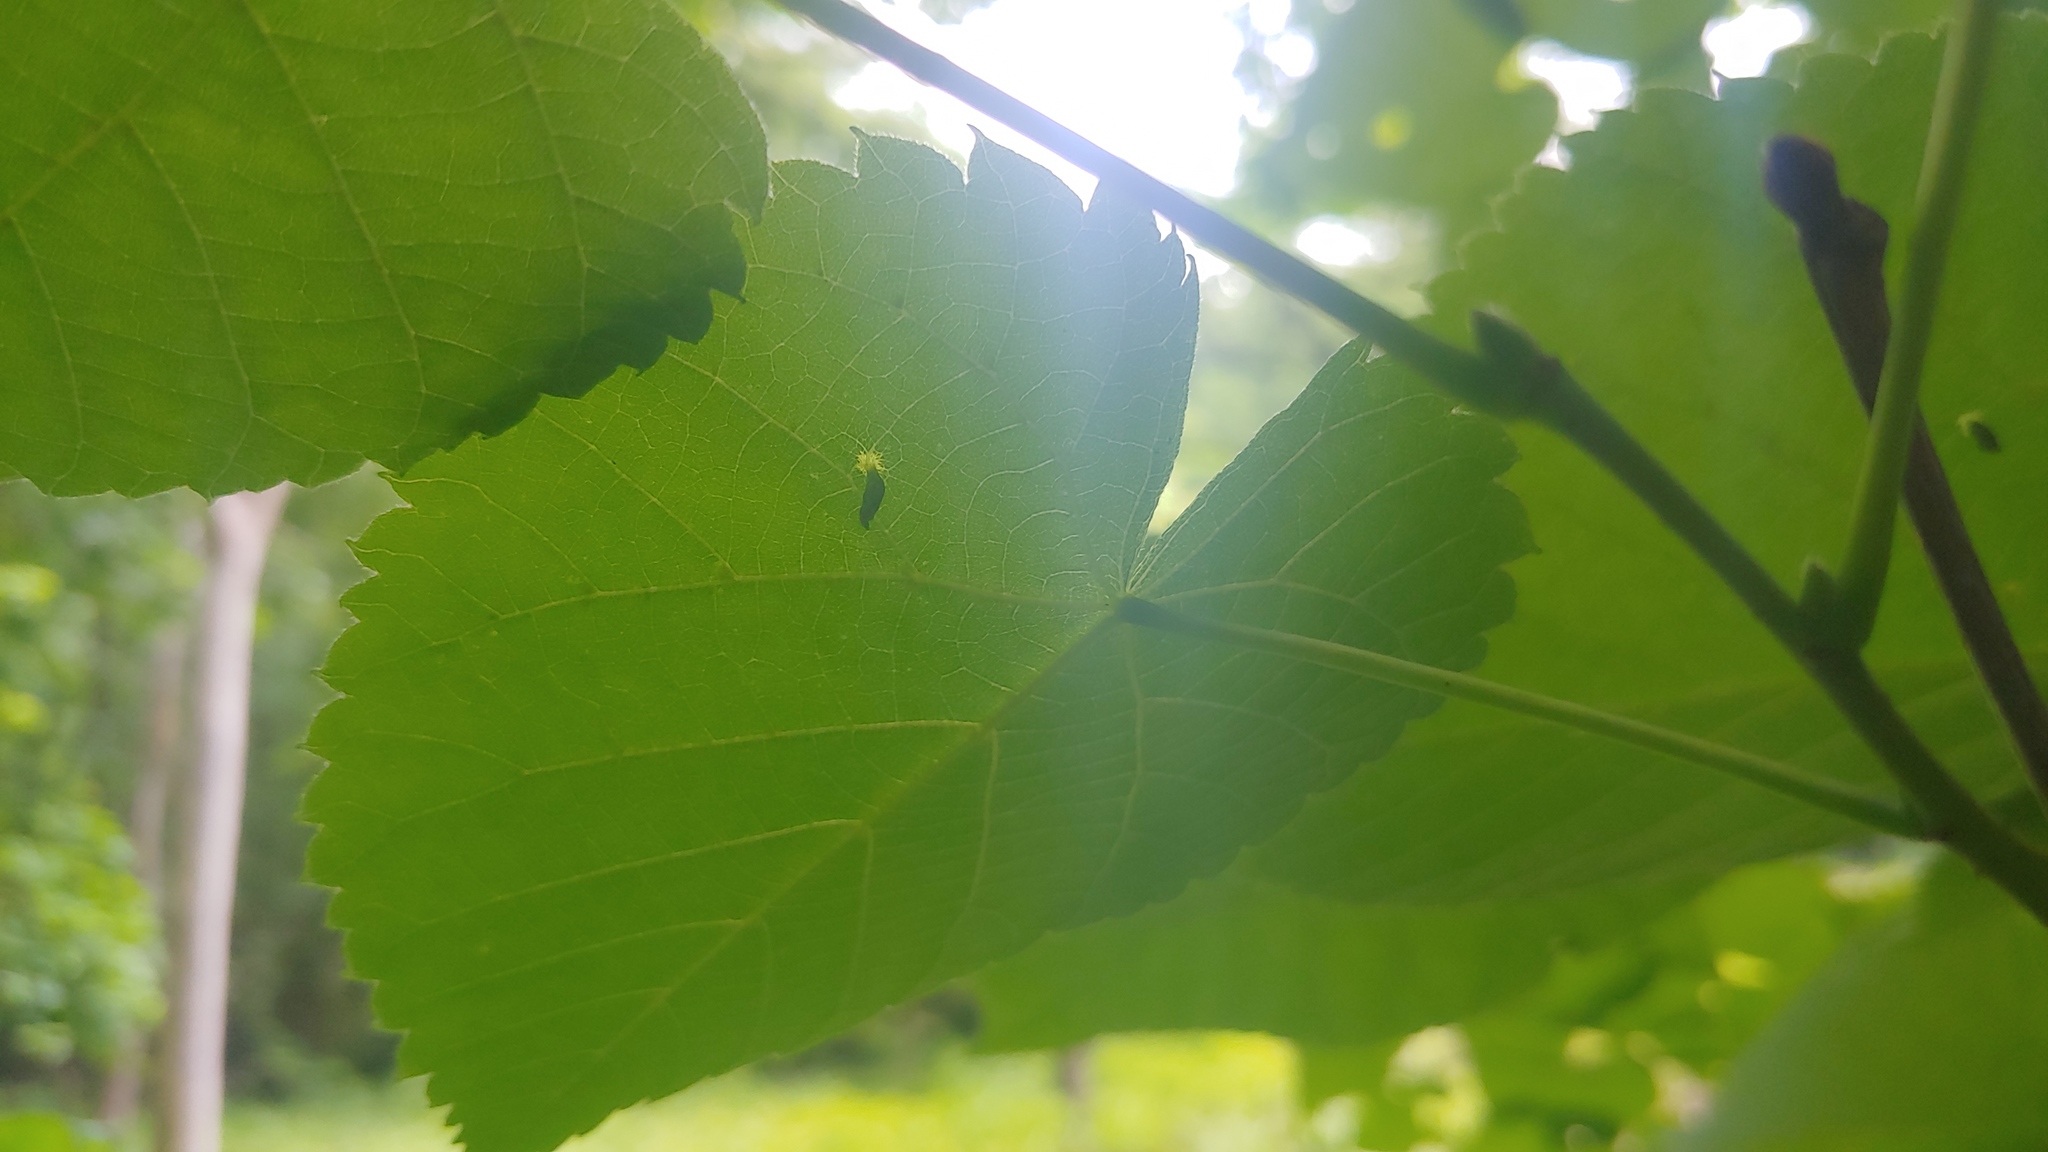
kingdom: Animalia
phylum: Arthropoda
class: Arachnida
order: Trombidiformes
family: Eriophyidae
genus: Eriophyes
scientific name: Eriophyes tiliae
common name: Red nail gall mite
